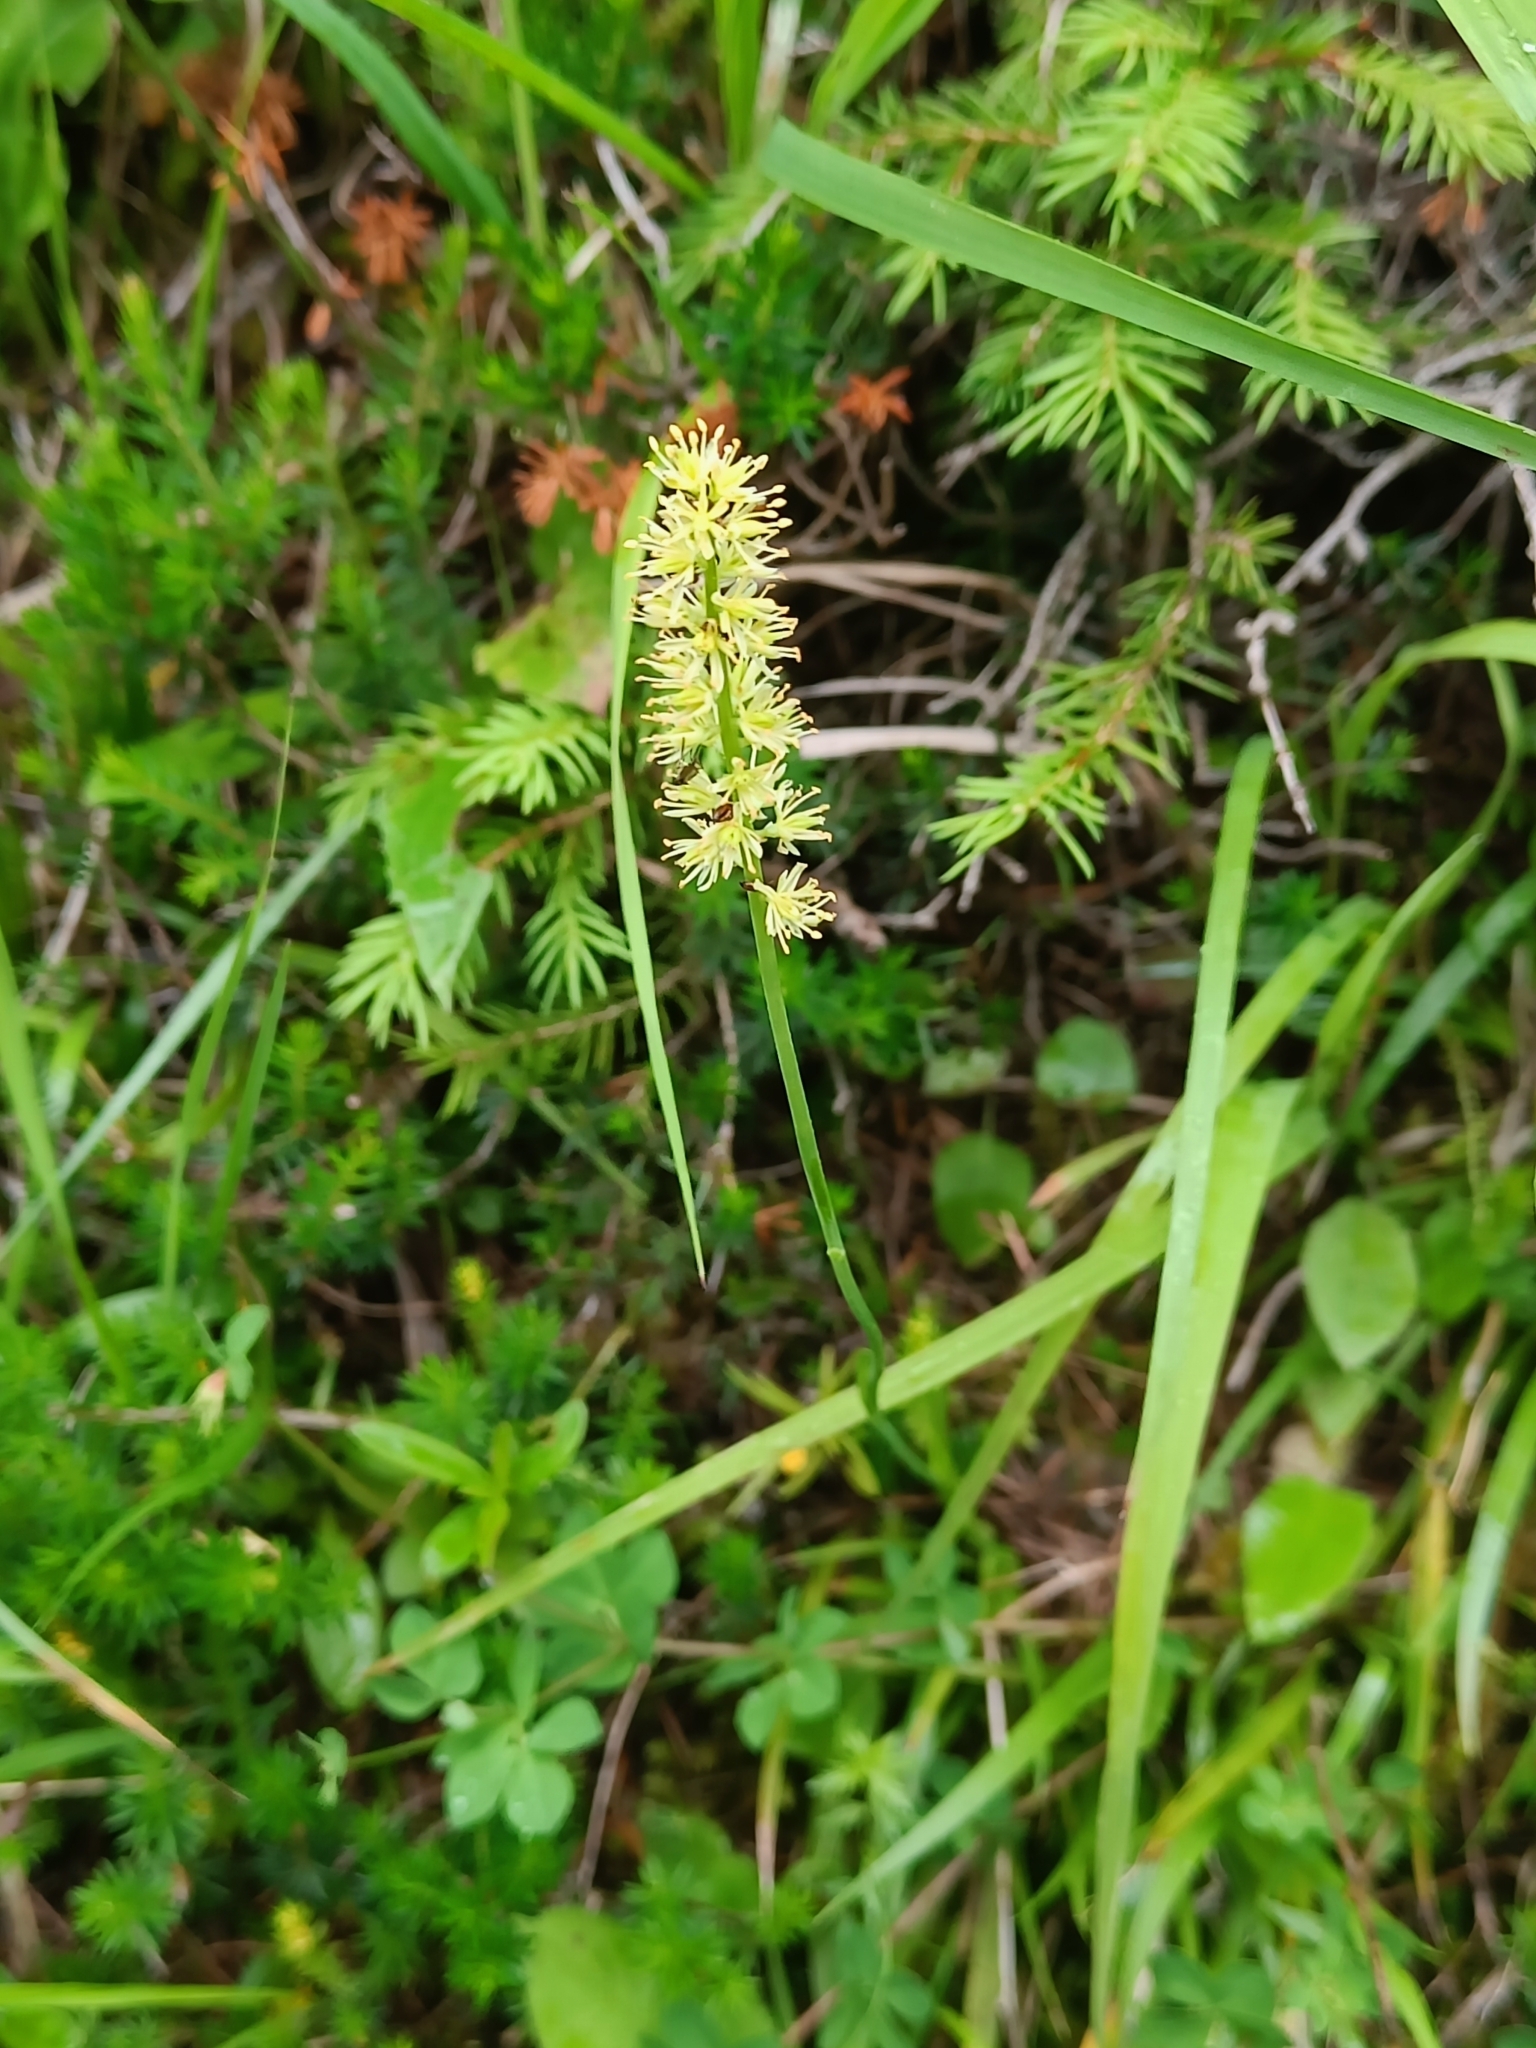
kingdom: Plantae
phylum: Tracheophyta
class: Liliopsida
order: Alismatales
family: Tofieldiaceae
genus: Tofieldia
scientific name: Tofieldia calyculata
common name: German-asphodel
